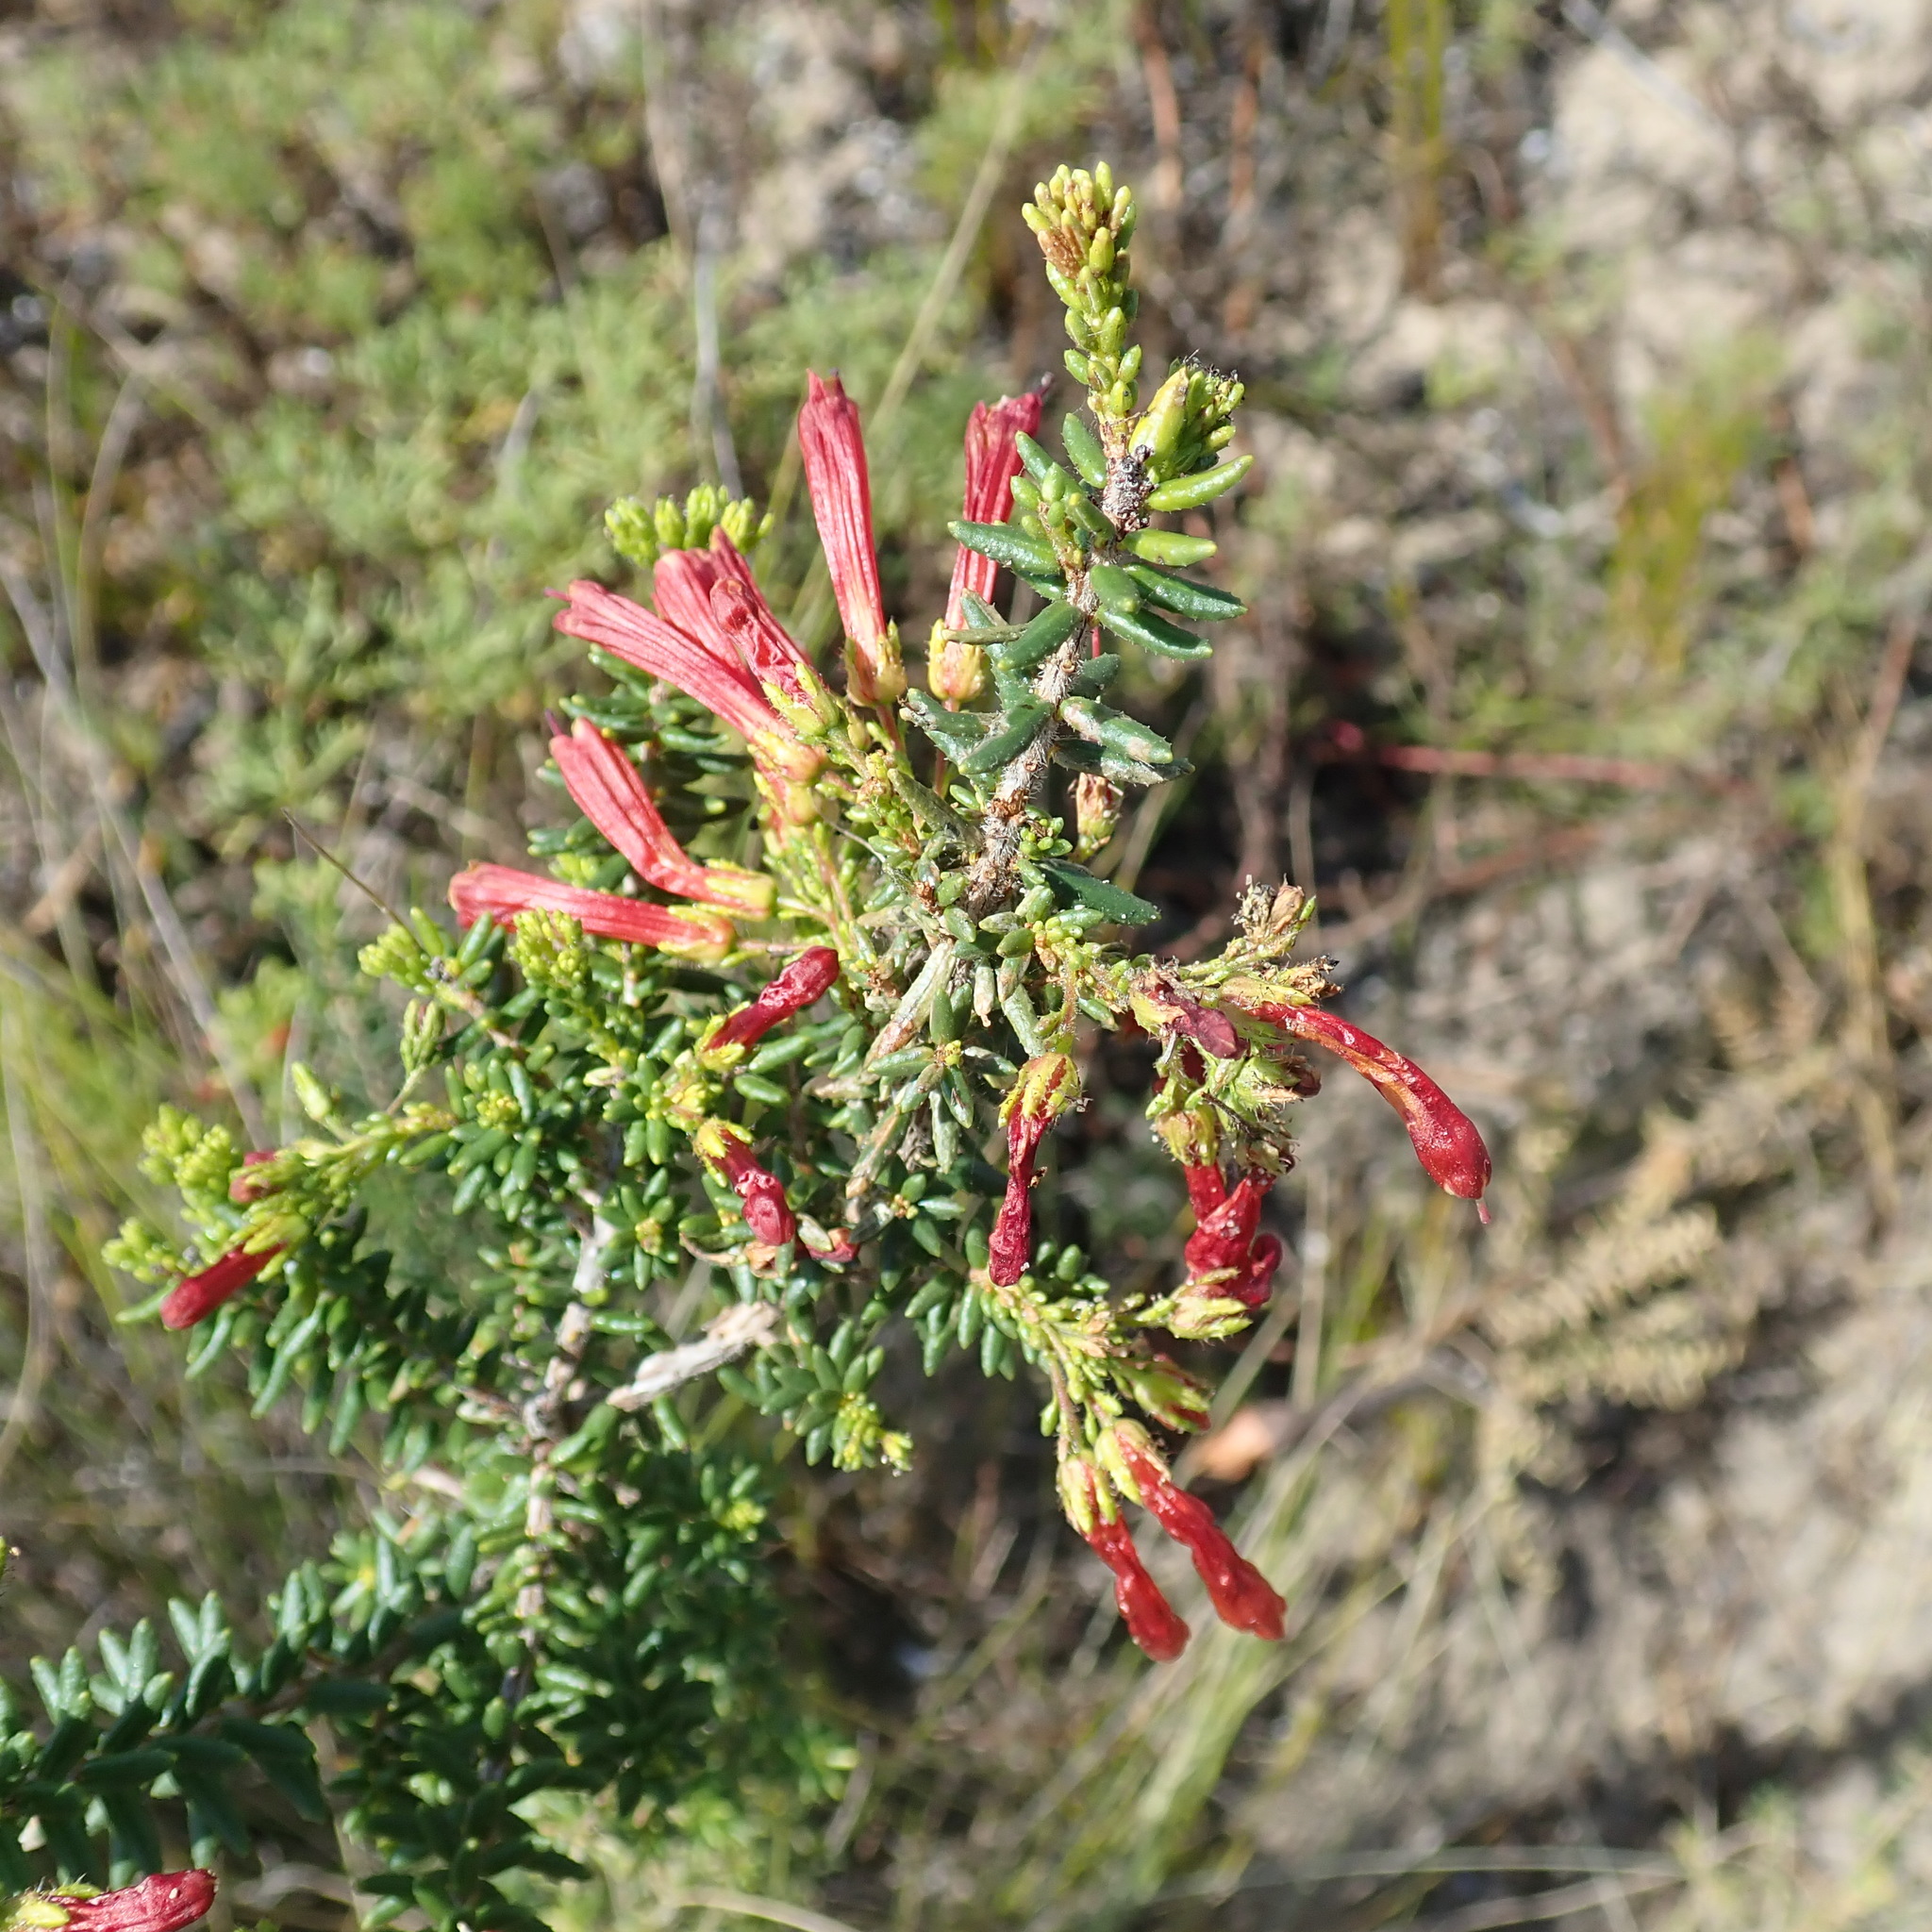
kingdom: Plantae
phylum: Tracheophyta
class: Magnoliopsida
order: Ericales
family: Ericaceae
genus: Erica
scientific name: Erica glandulosa
